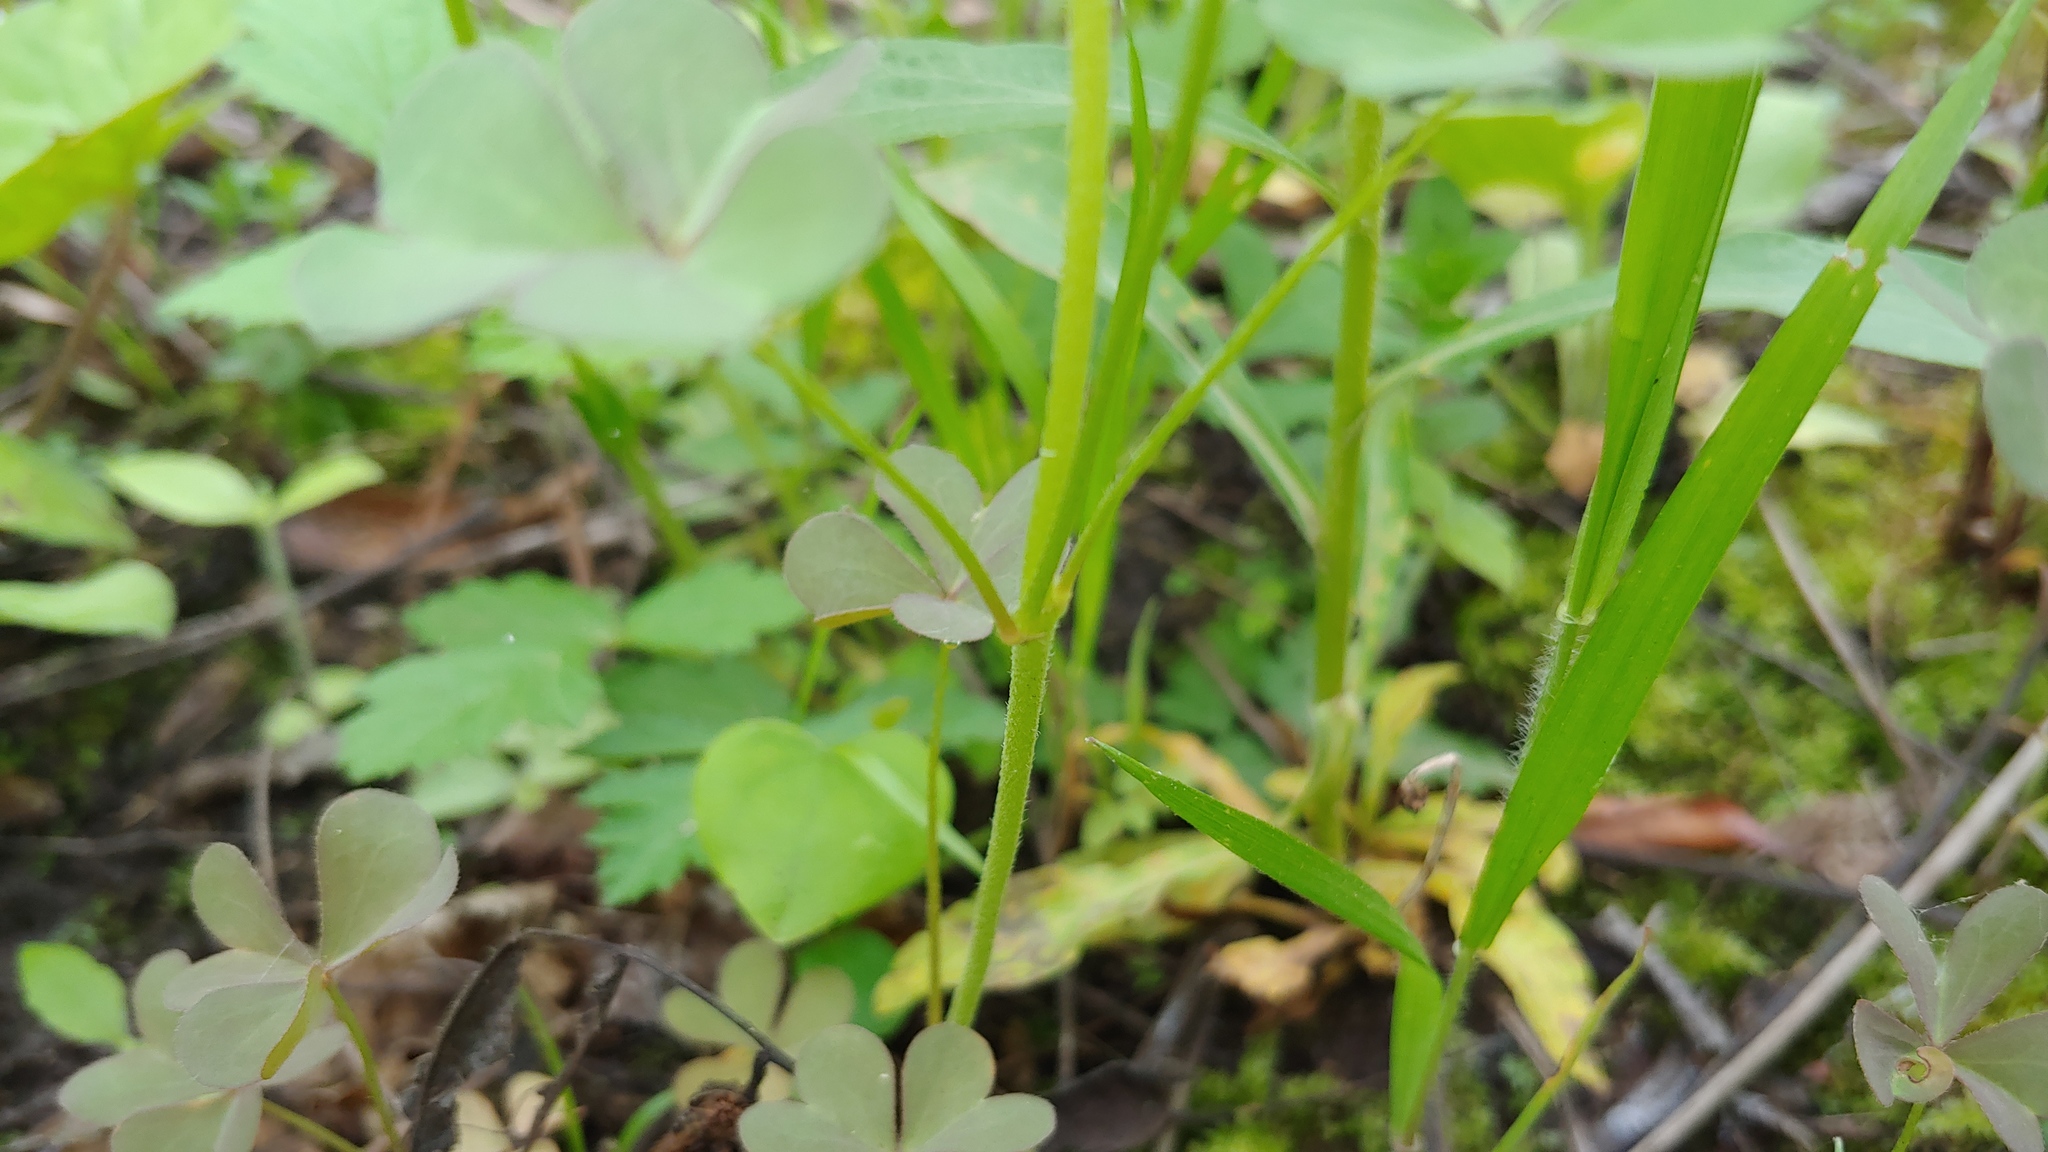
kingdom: Plantae
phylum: Tracheophyta
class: Magnoliopsida
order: Oxalidales
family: Oxalidaceae
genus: Oxalis
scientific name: Oxalis dillenii
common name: Sussex yellow-sorrel
